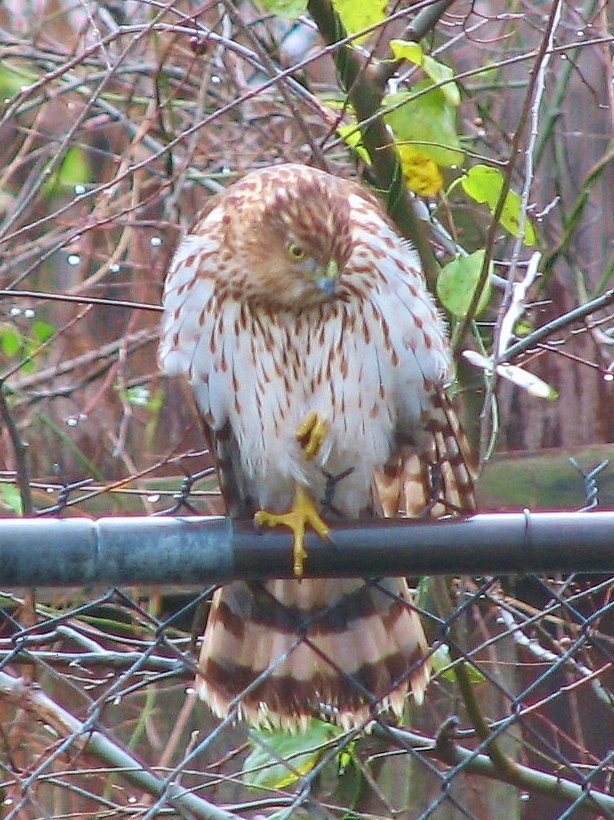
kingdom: Animalia
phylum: Chordata
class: Aves
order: Accipitriformes
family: Accipitridae
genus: Accipiter
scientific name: Accipiter cooperii
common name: Cooper's hawk
